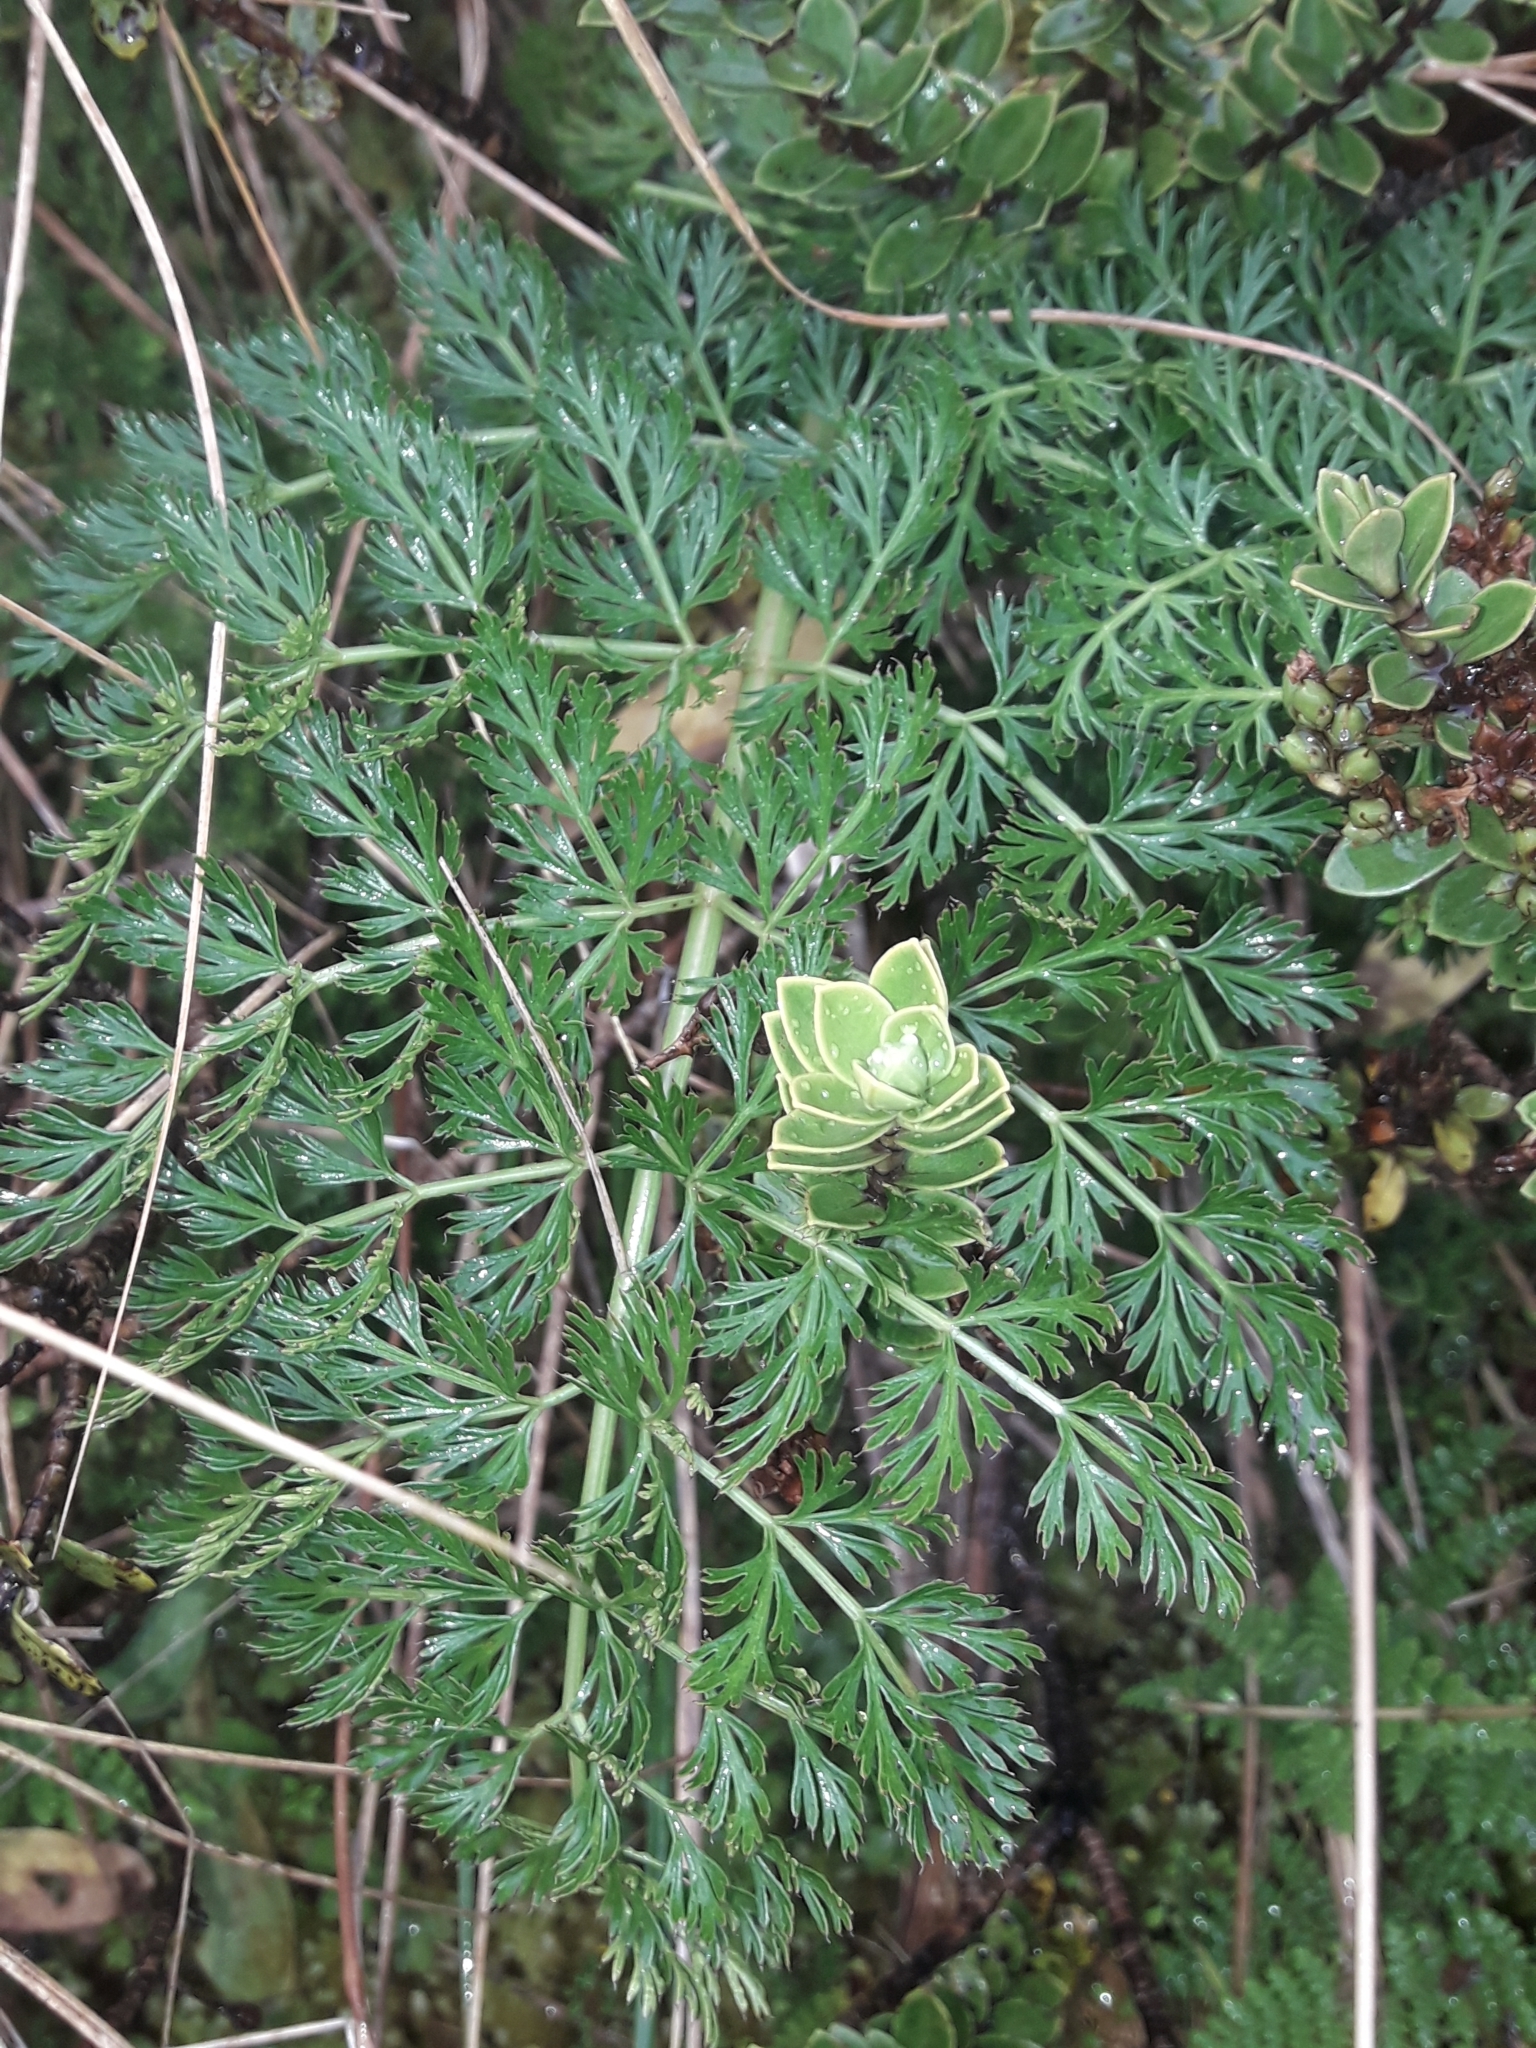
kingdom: Plantae
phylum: Tracheophyta
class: Magnoliopsida
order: Apiales
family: Apiaceae
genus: Anisotome
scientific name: Anisotome haastii
